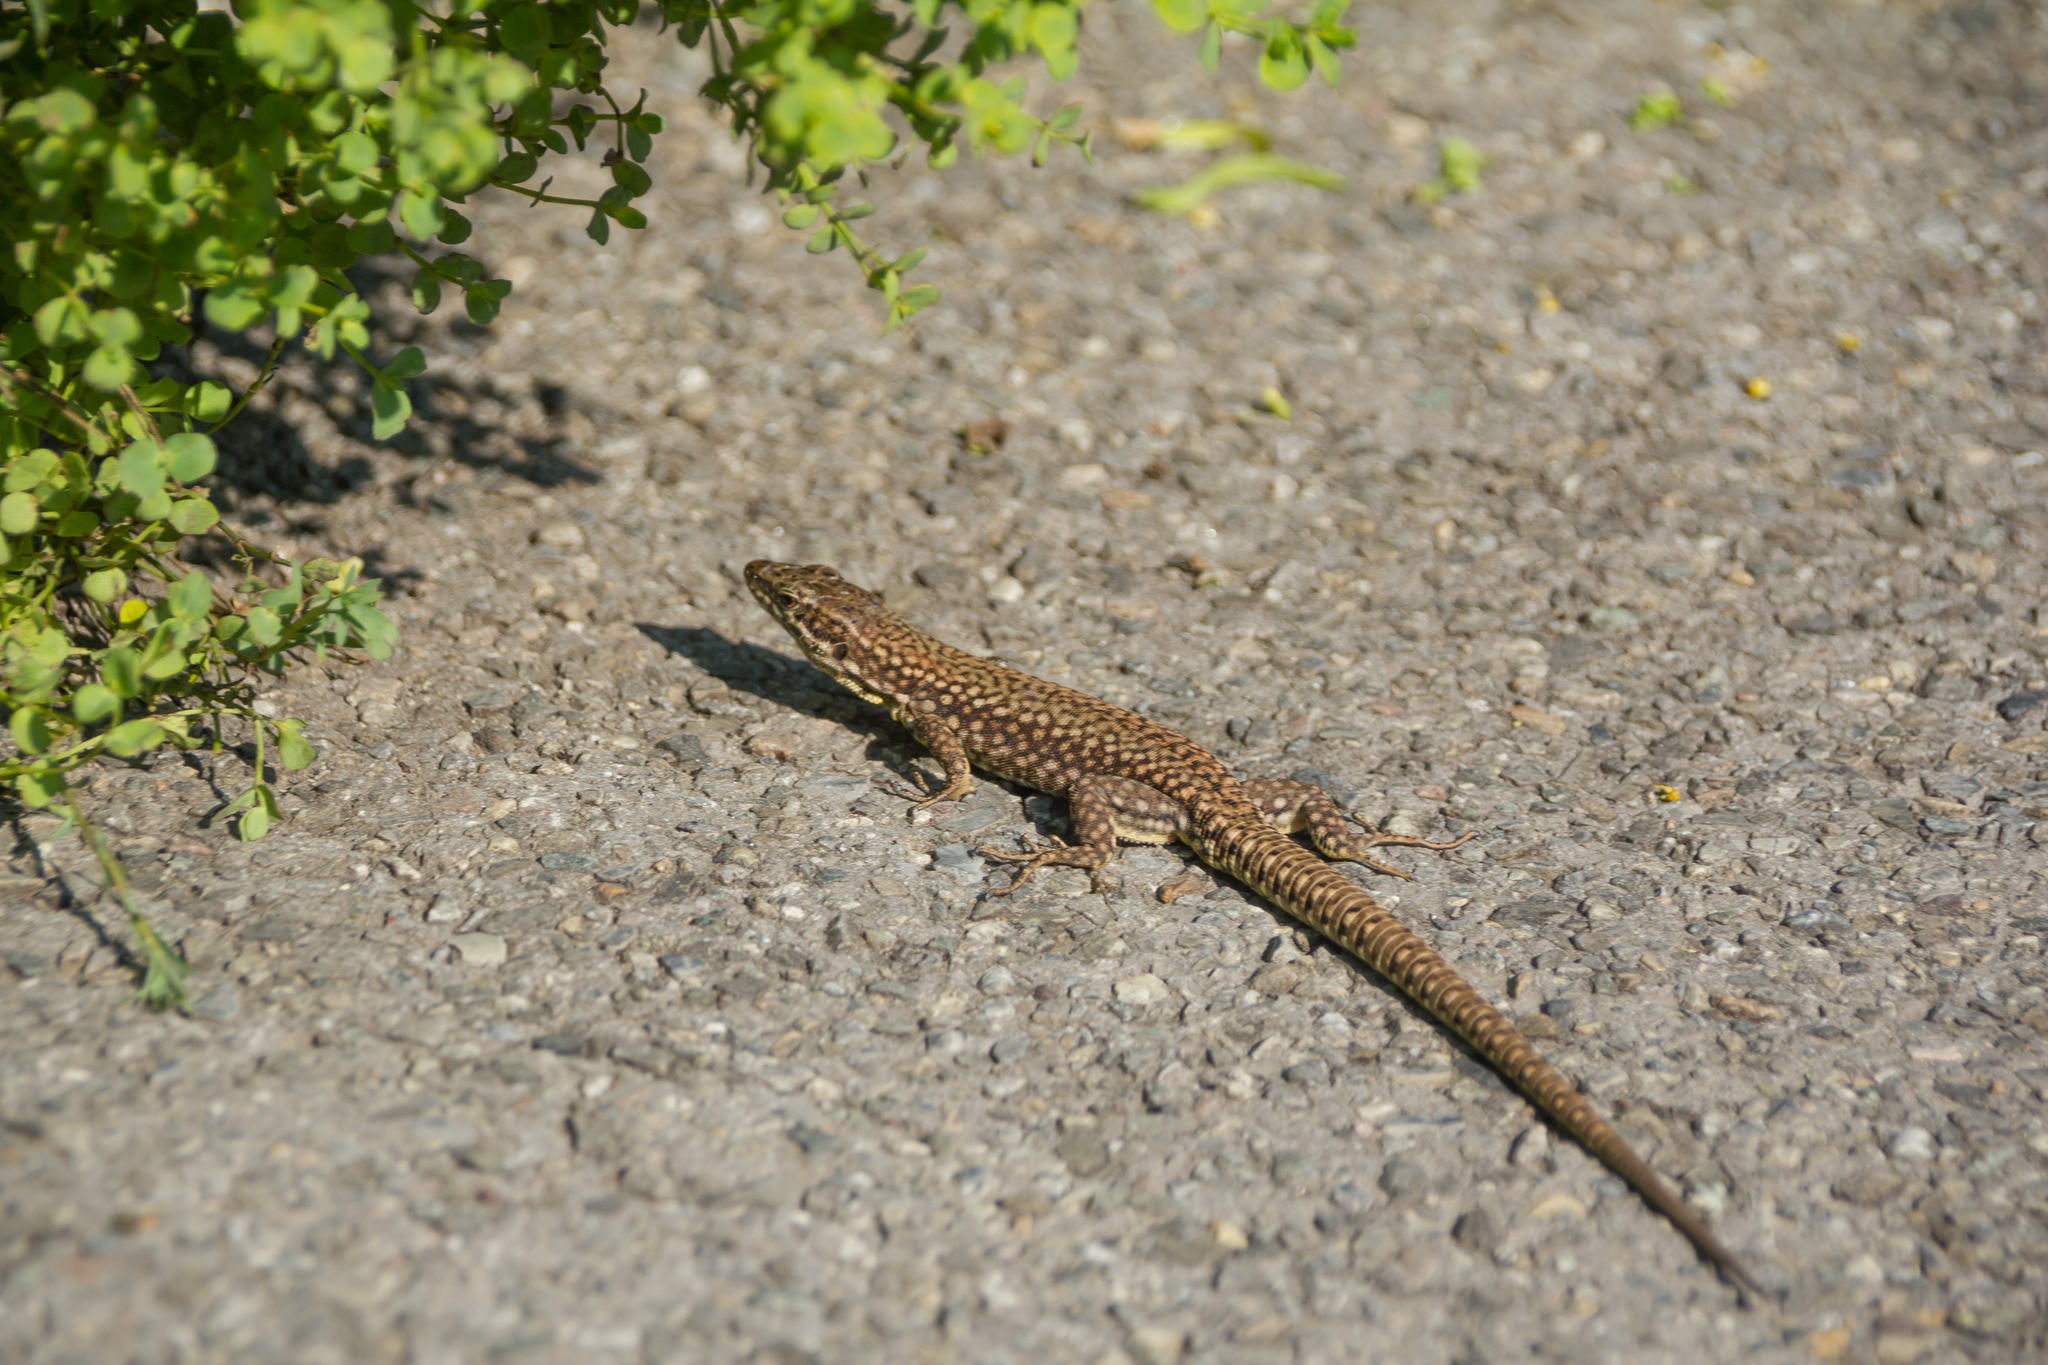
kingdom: Animalia
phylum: Chordata
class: Squamata
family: Lacertidae
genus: Podarcis
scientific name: Podarcis muralis
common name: Common wall lizard
